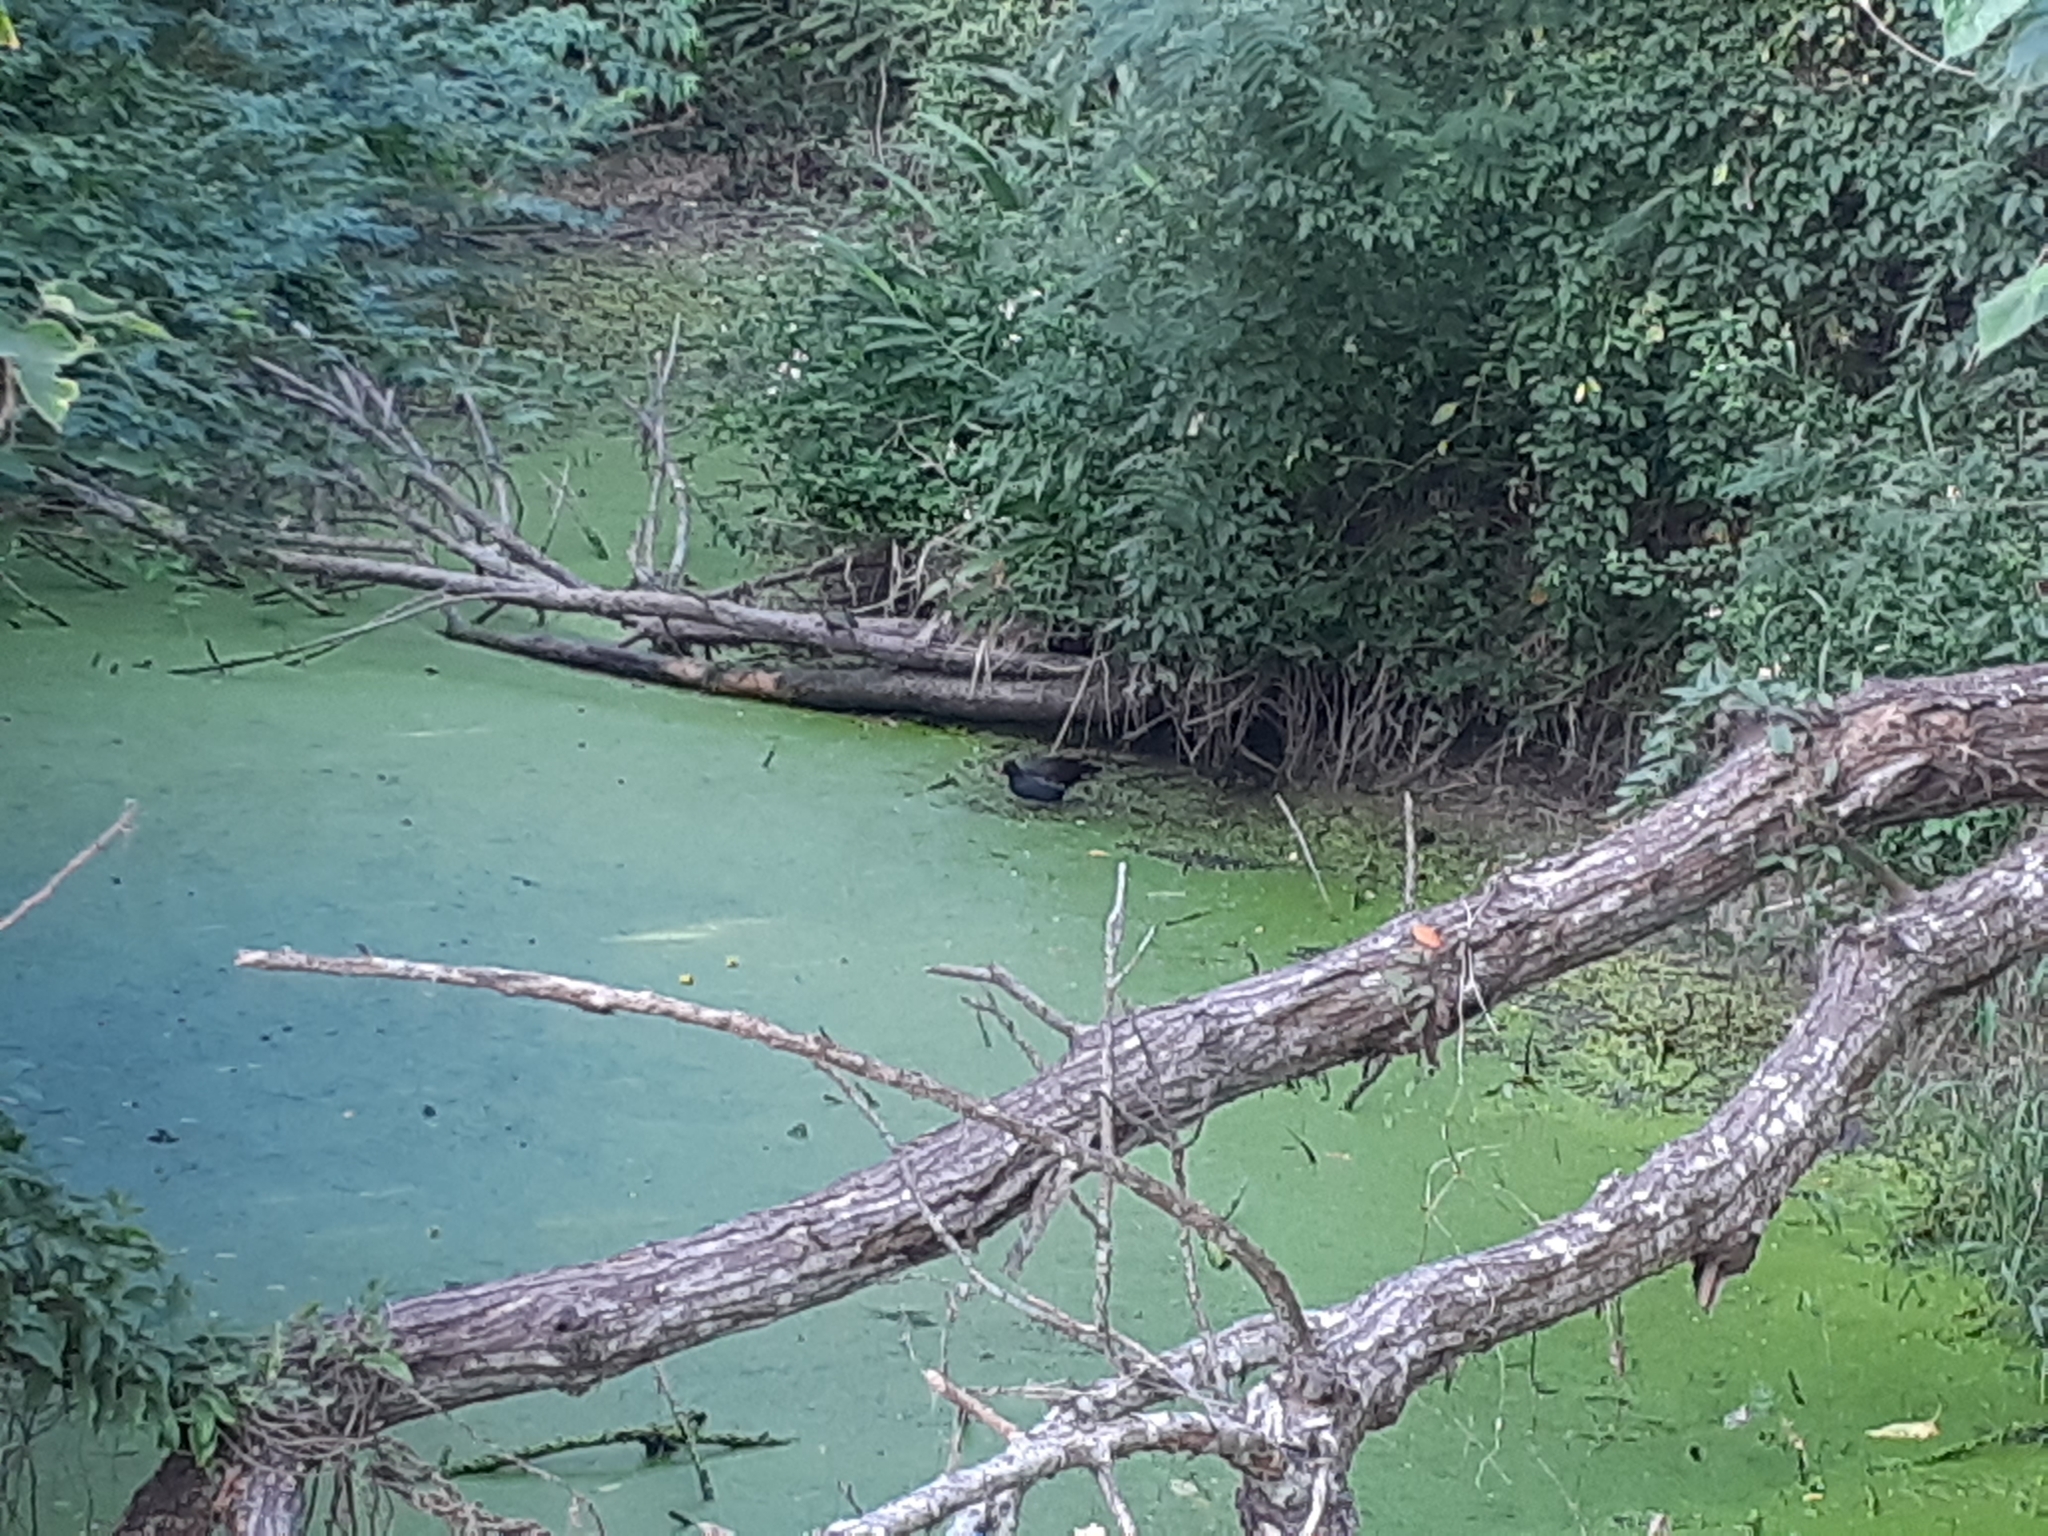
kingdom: Animalia
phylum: Chordata
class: Aves
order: Gruiformes
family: Rallidae
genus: Gallinula
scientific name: Gallinula chloropus
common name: Common moorhen
